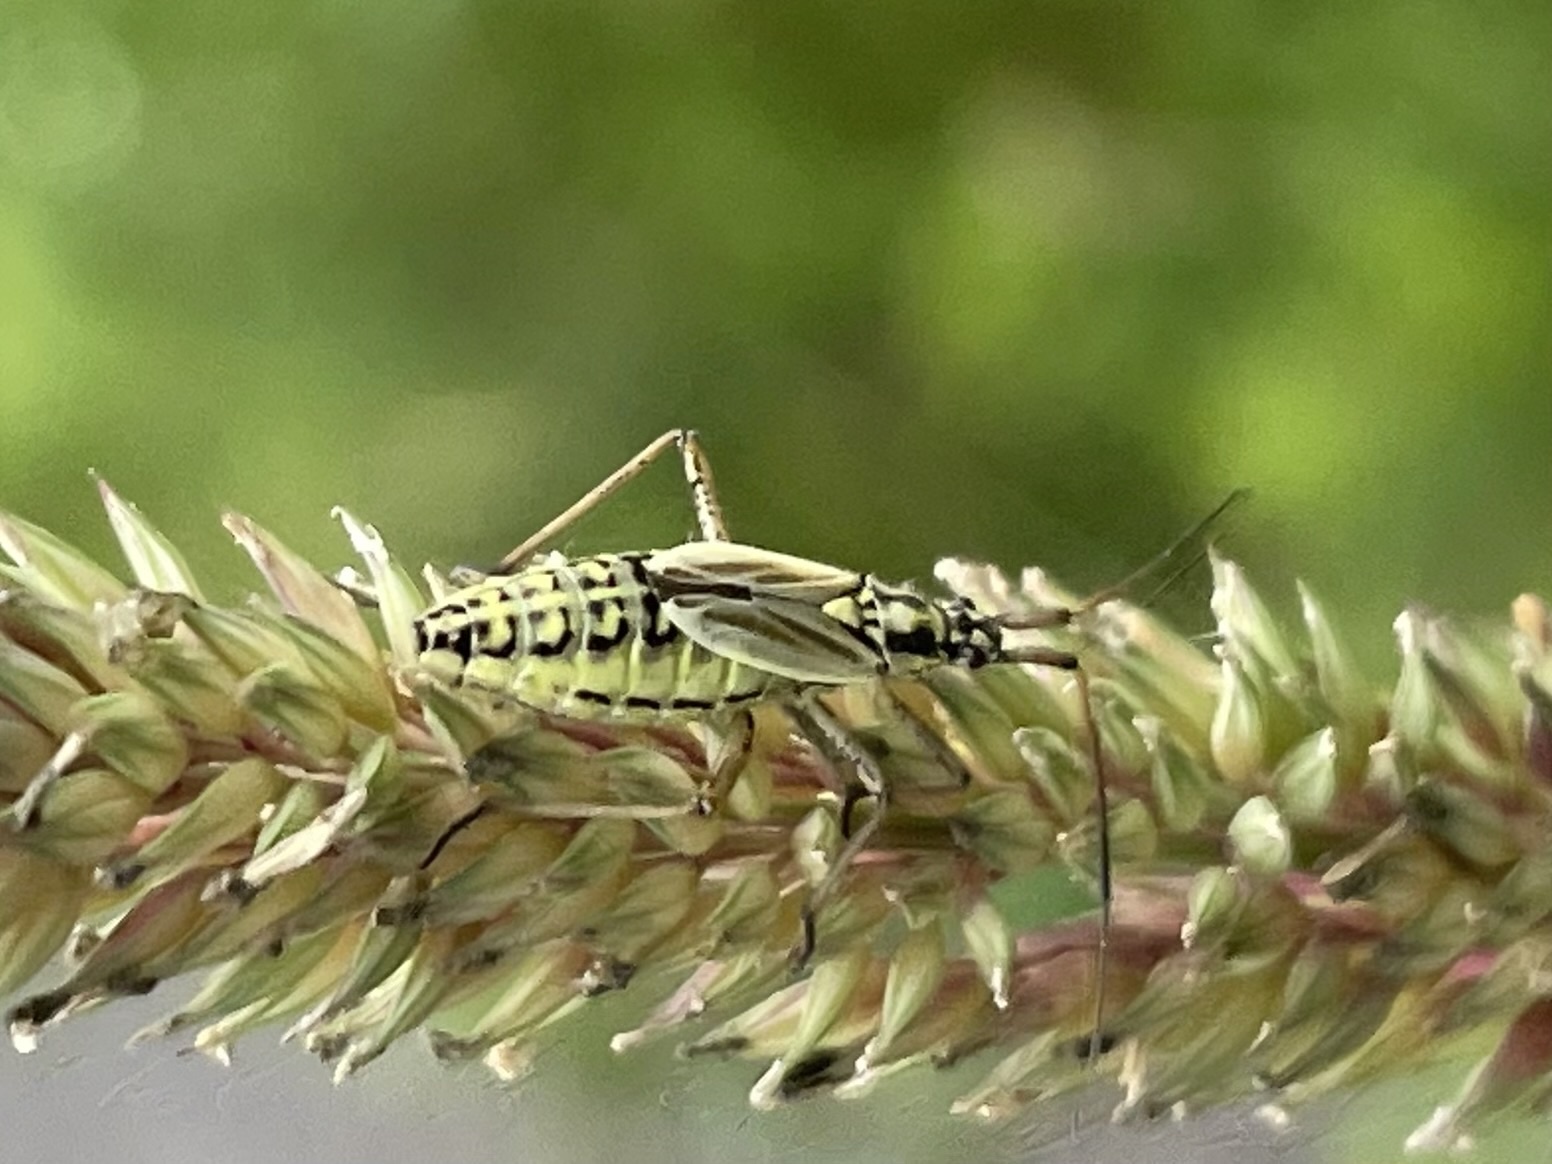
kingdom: Animalia
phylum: Arthropoda
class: Insecta
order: Hemiptera
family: Miridae
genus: Leptopterna
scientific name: Leptopterna dolabrata
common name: Meadow plant bug
